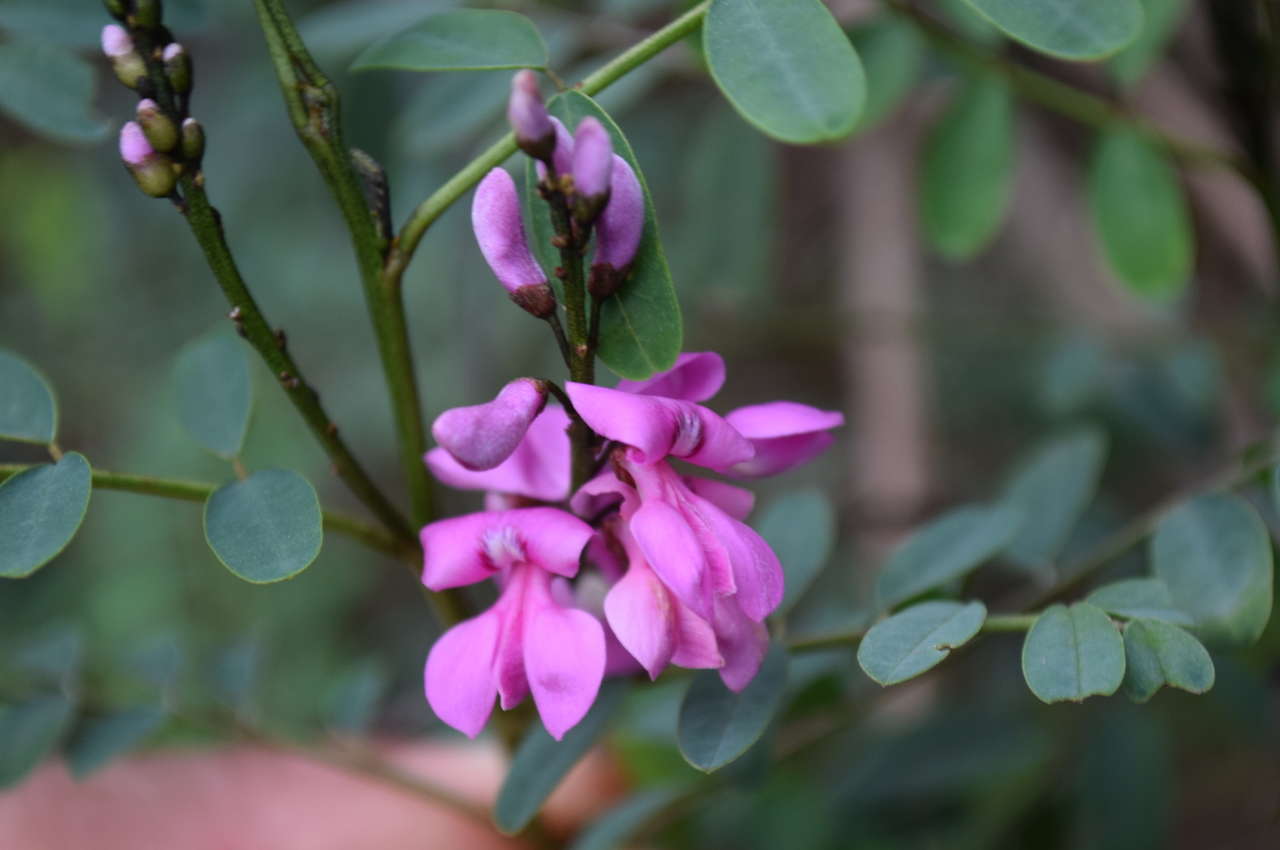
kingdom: Plantae
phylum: Tracheophyta
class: Magnoliopsida
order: Fabales
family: Fabaceae
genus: Indigofera
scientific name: Indigofera australis
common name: Australian indigo
